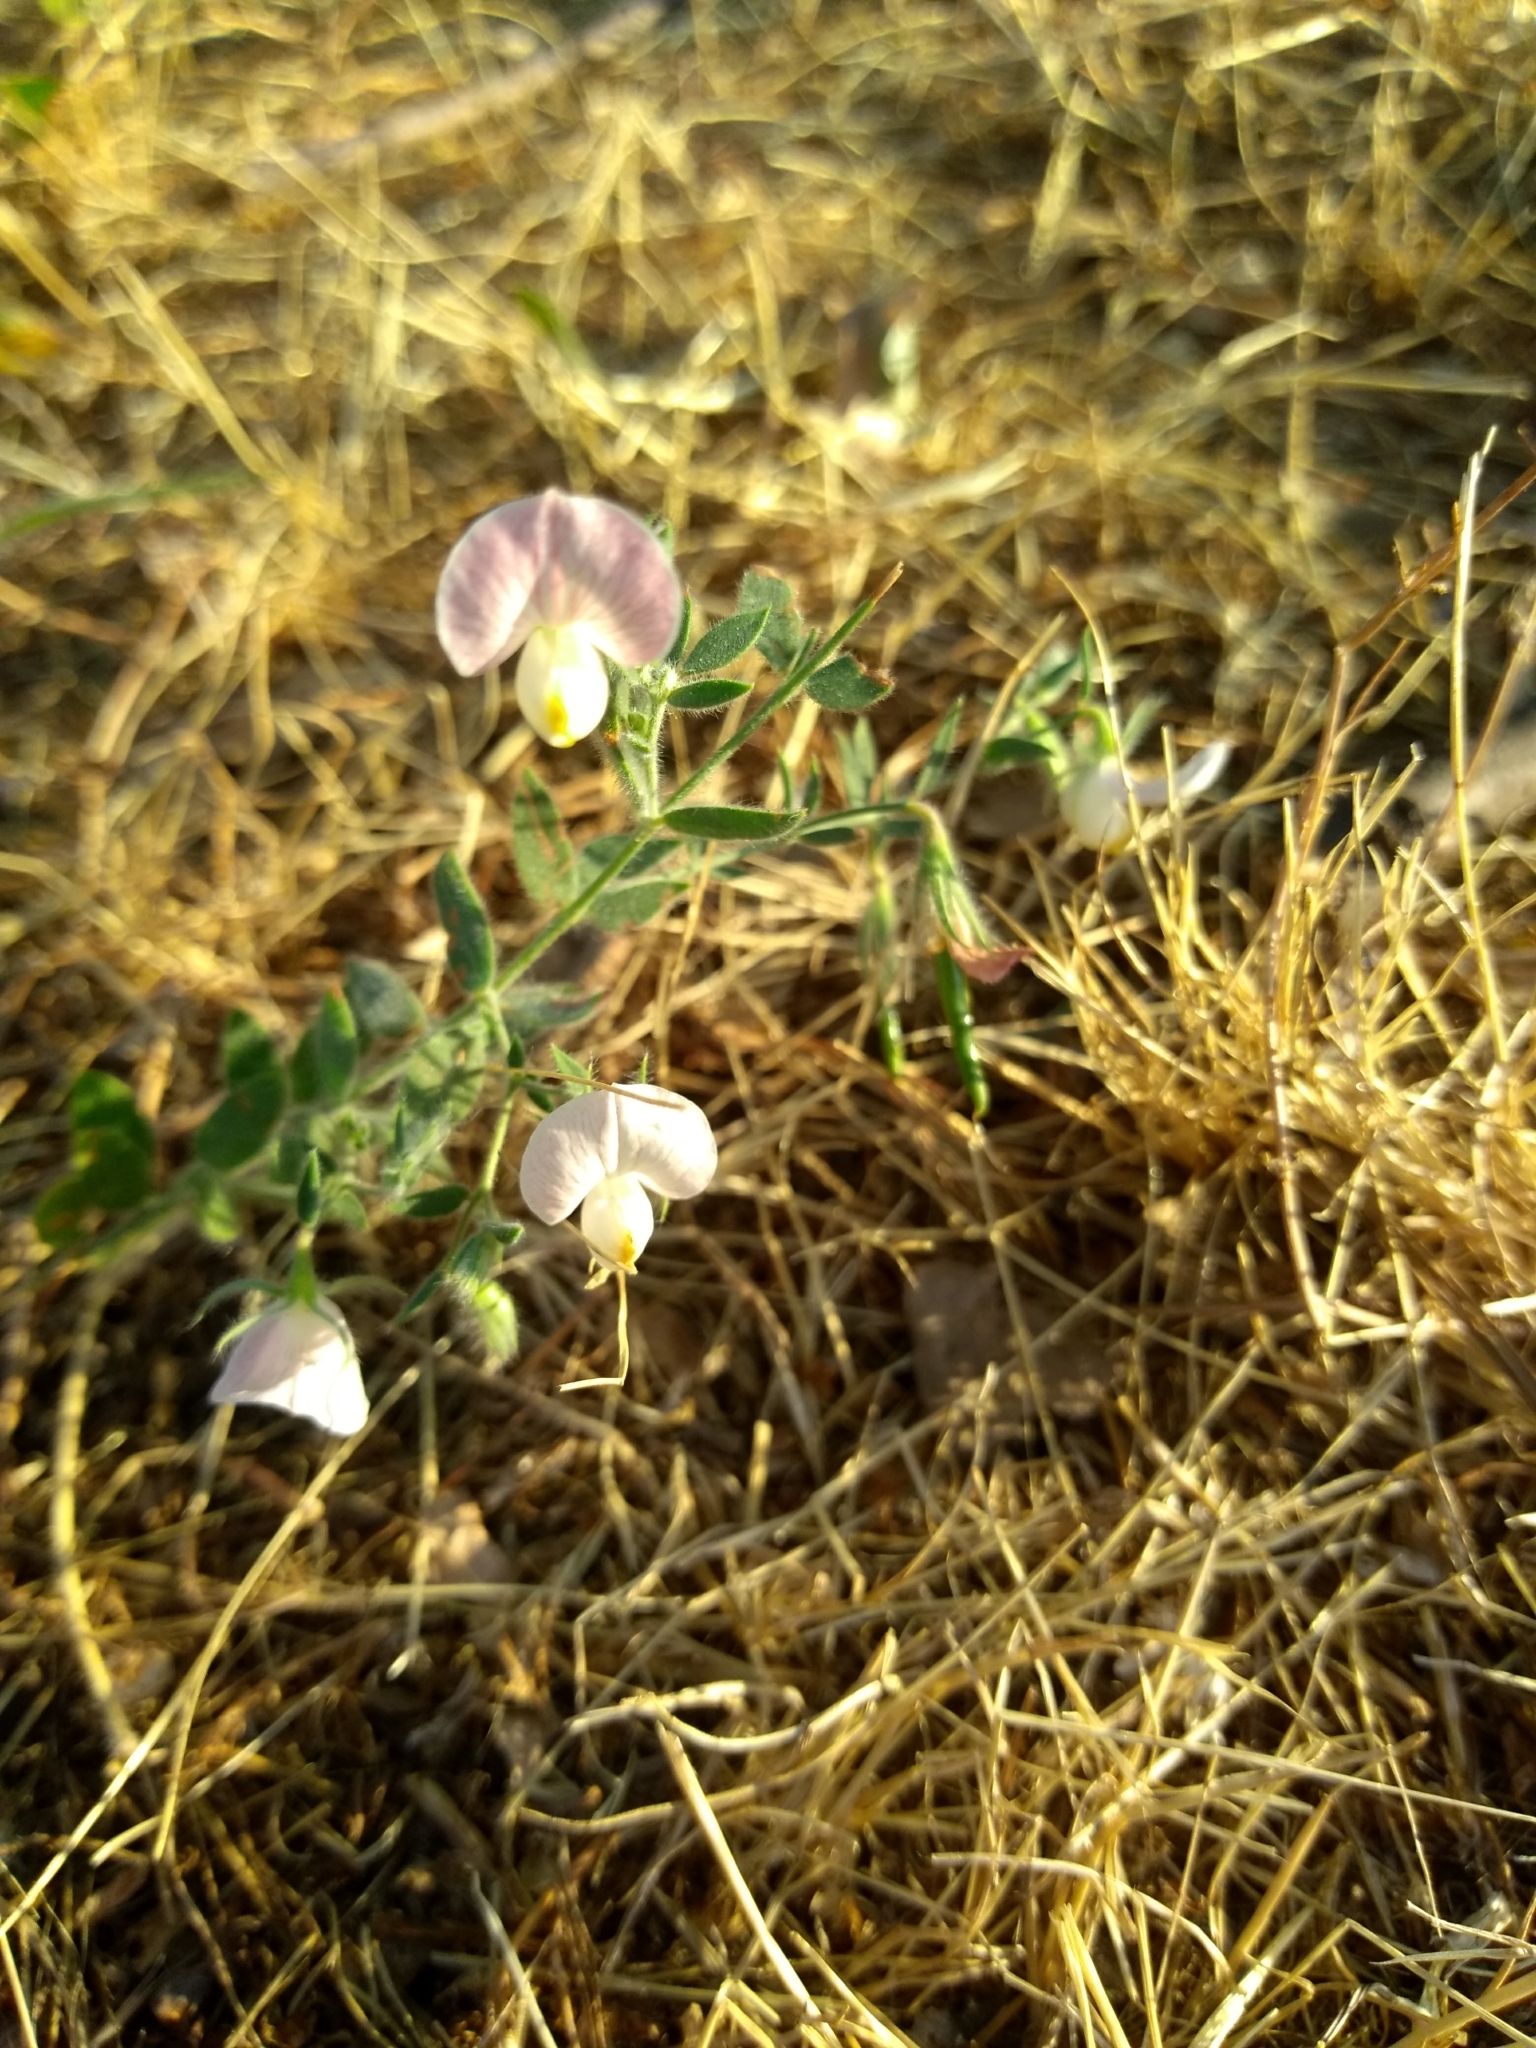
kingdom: Plantae
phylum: Tracheophyta
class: Magnoliopsida
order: Fabales
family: Fabaceae
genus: Acmispon
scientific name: Acmispon americanus
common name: American bird's-foot trefoil
